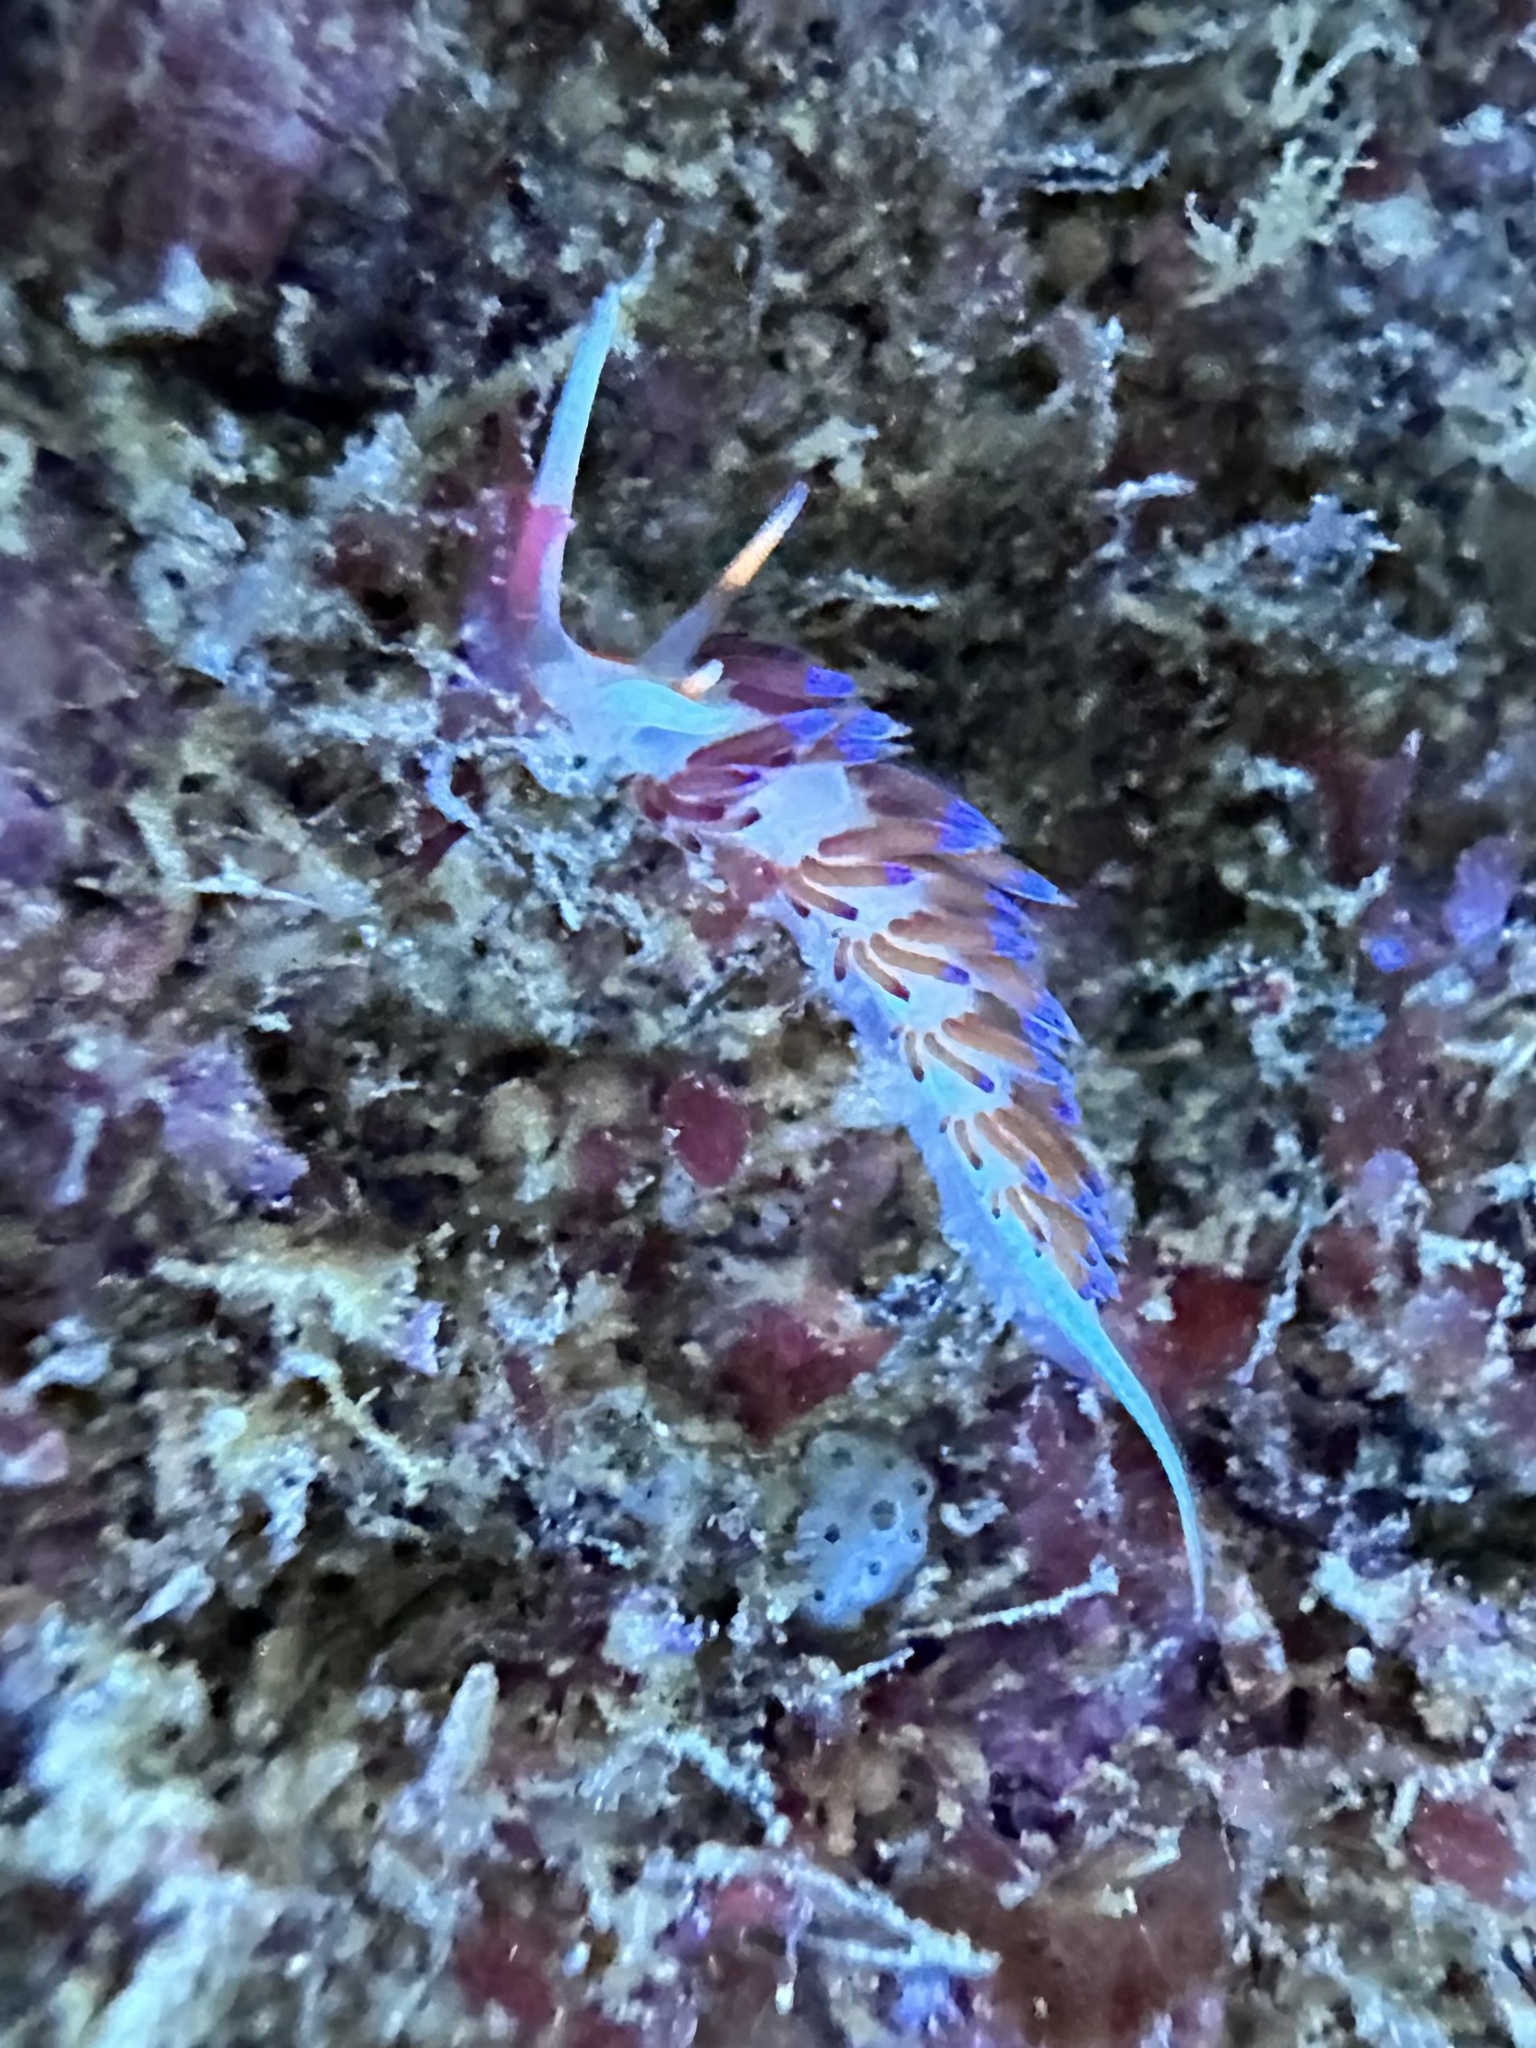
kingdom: Animalia
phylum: Mollusca
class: Gastropoda
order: Nudibranchia
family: Facelinidae
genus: Cratena
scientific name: Cratena peregrina
